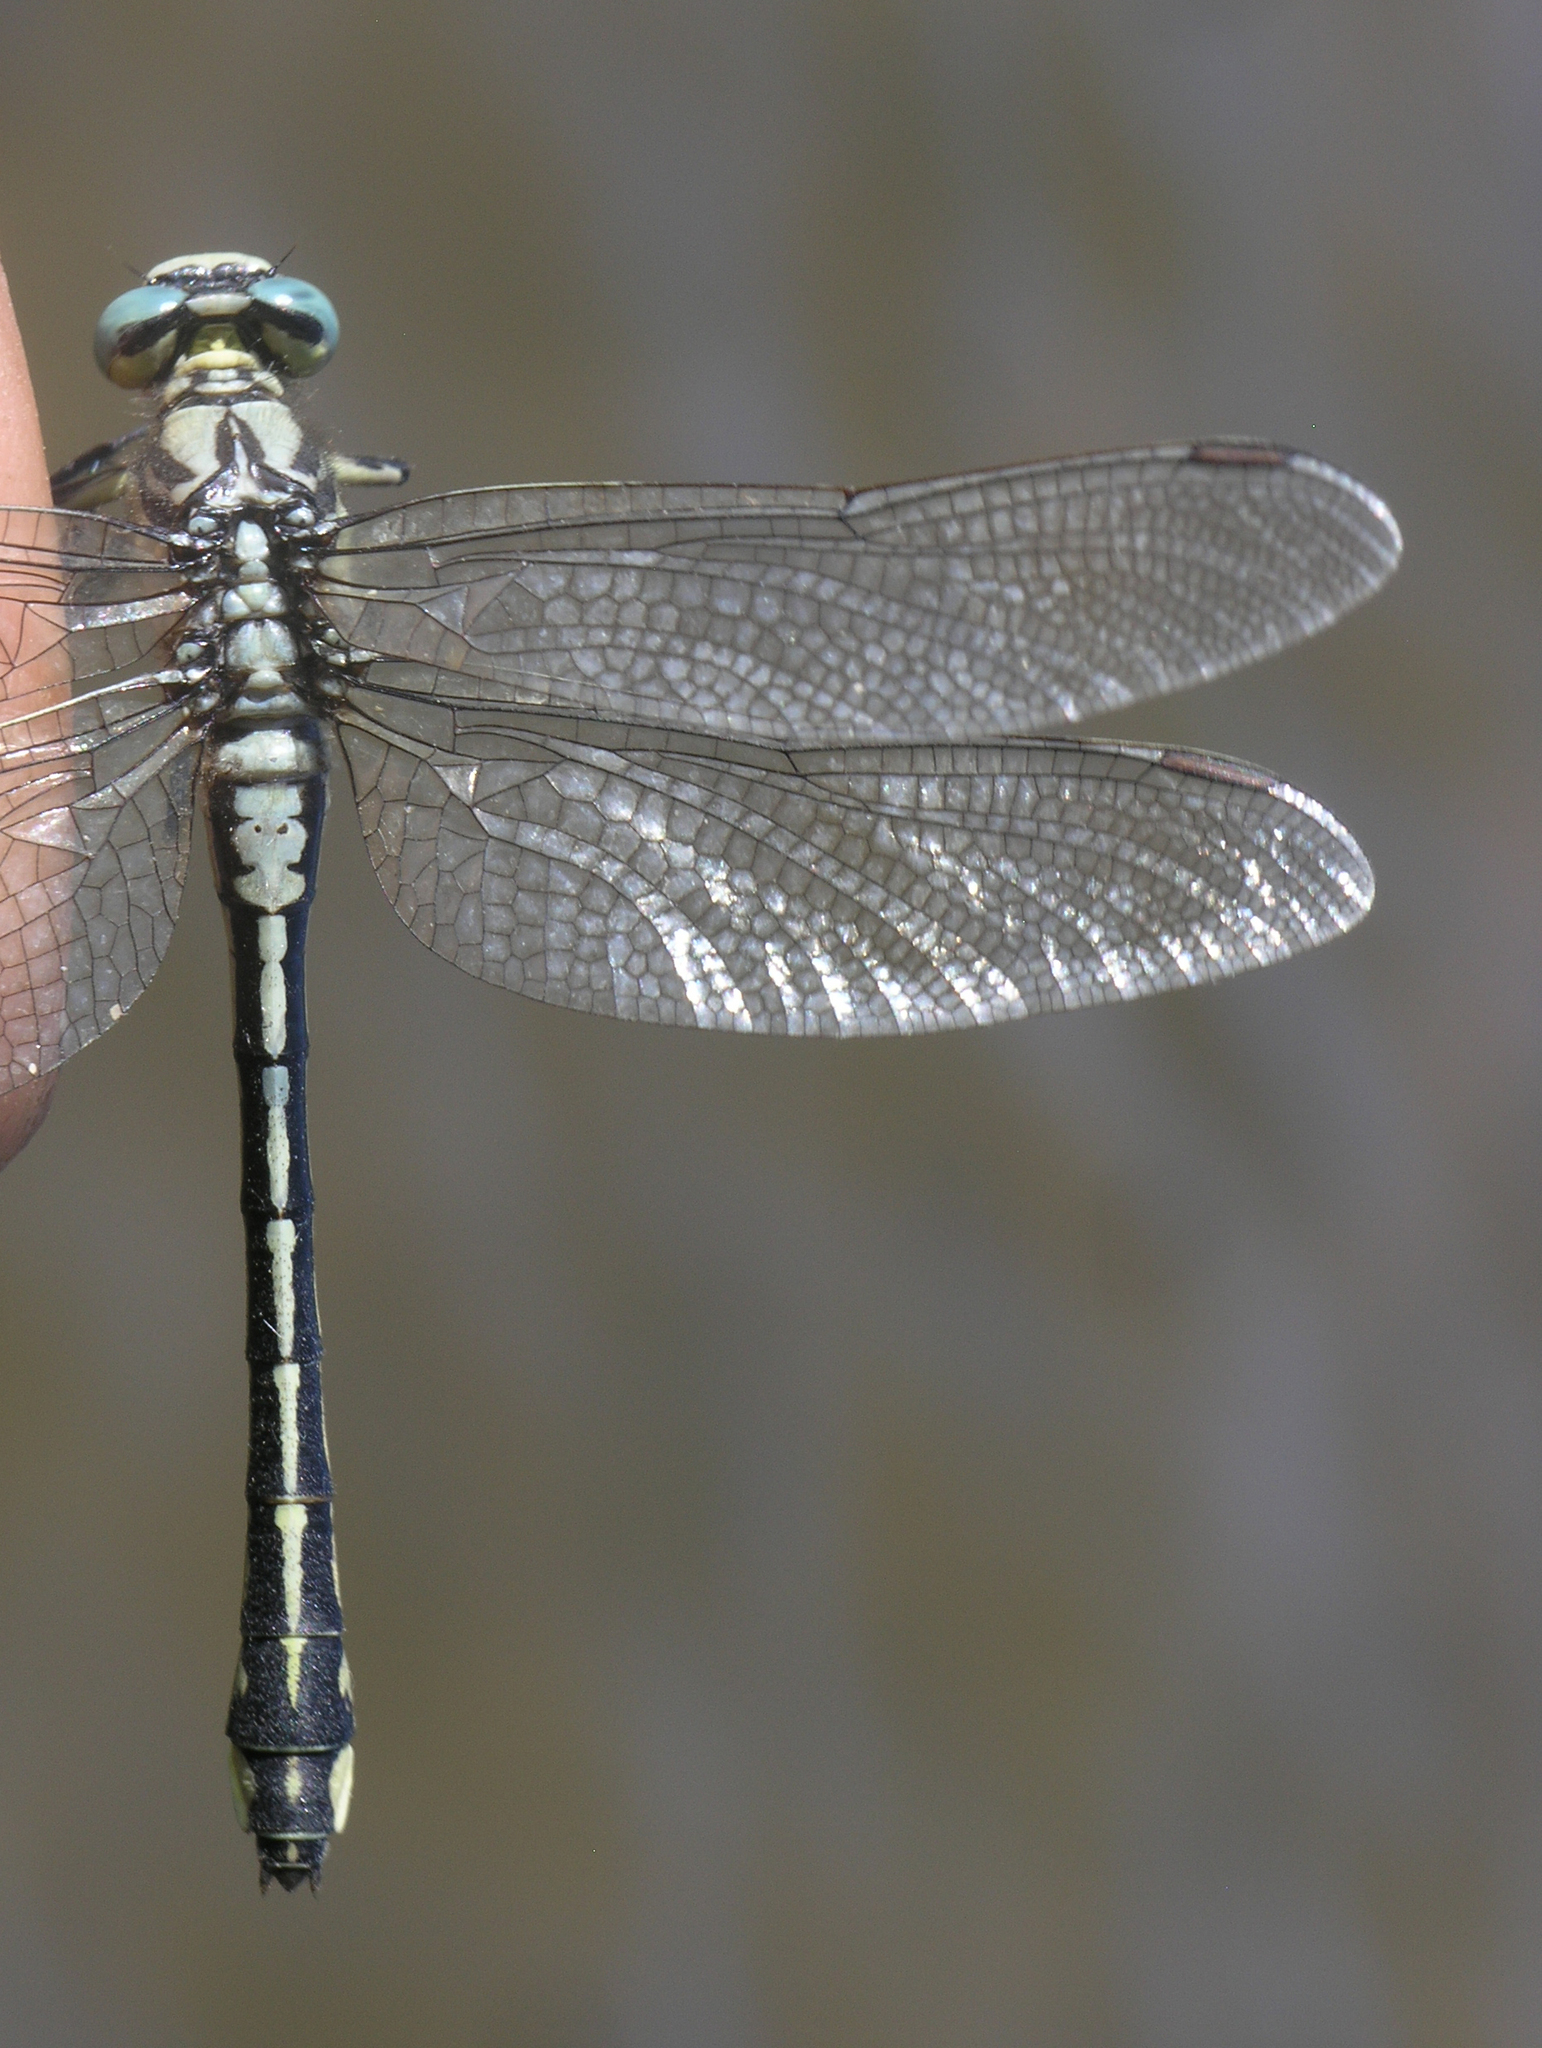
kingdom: Animalia
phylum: Arthropoda
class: Insecta
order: Odonata
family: Gomphidae
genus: Gomphus
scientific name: Gomphus schneiderii
